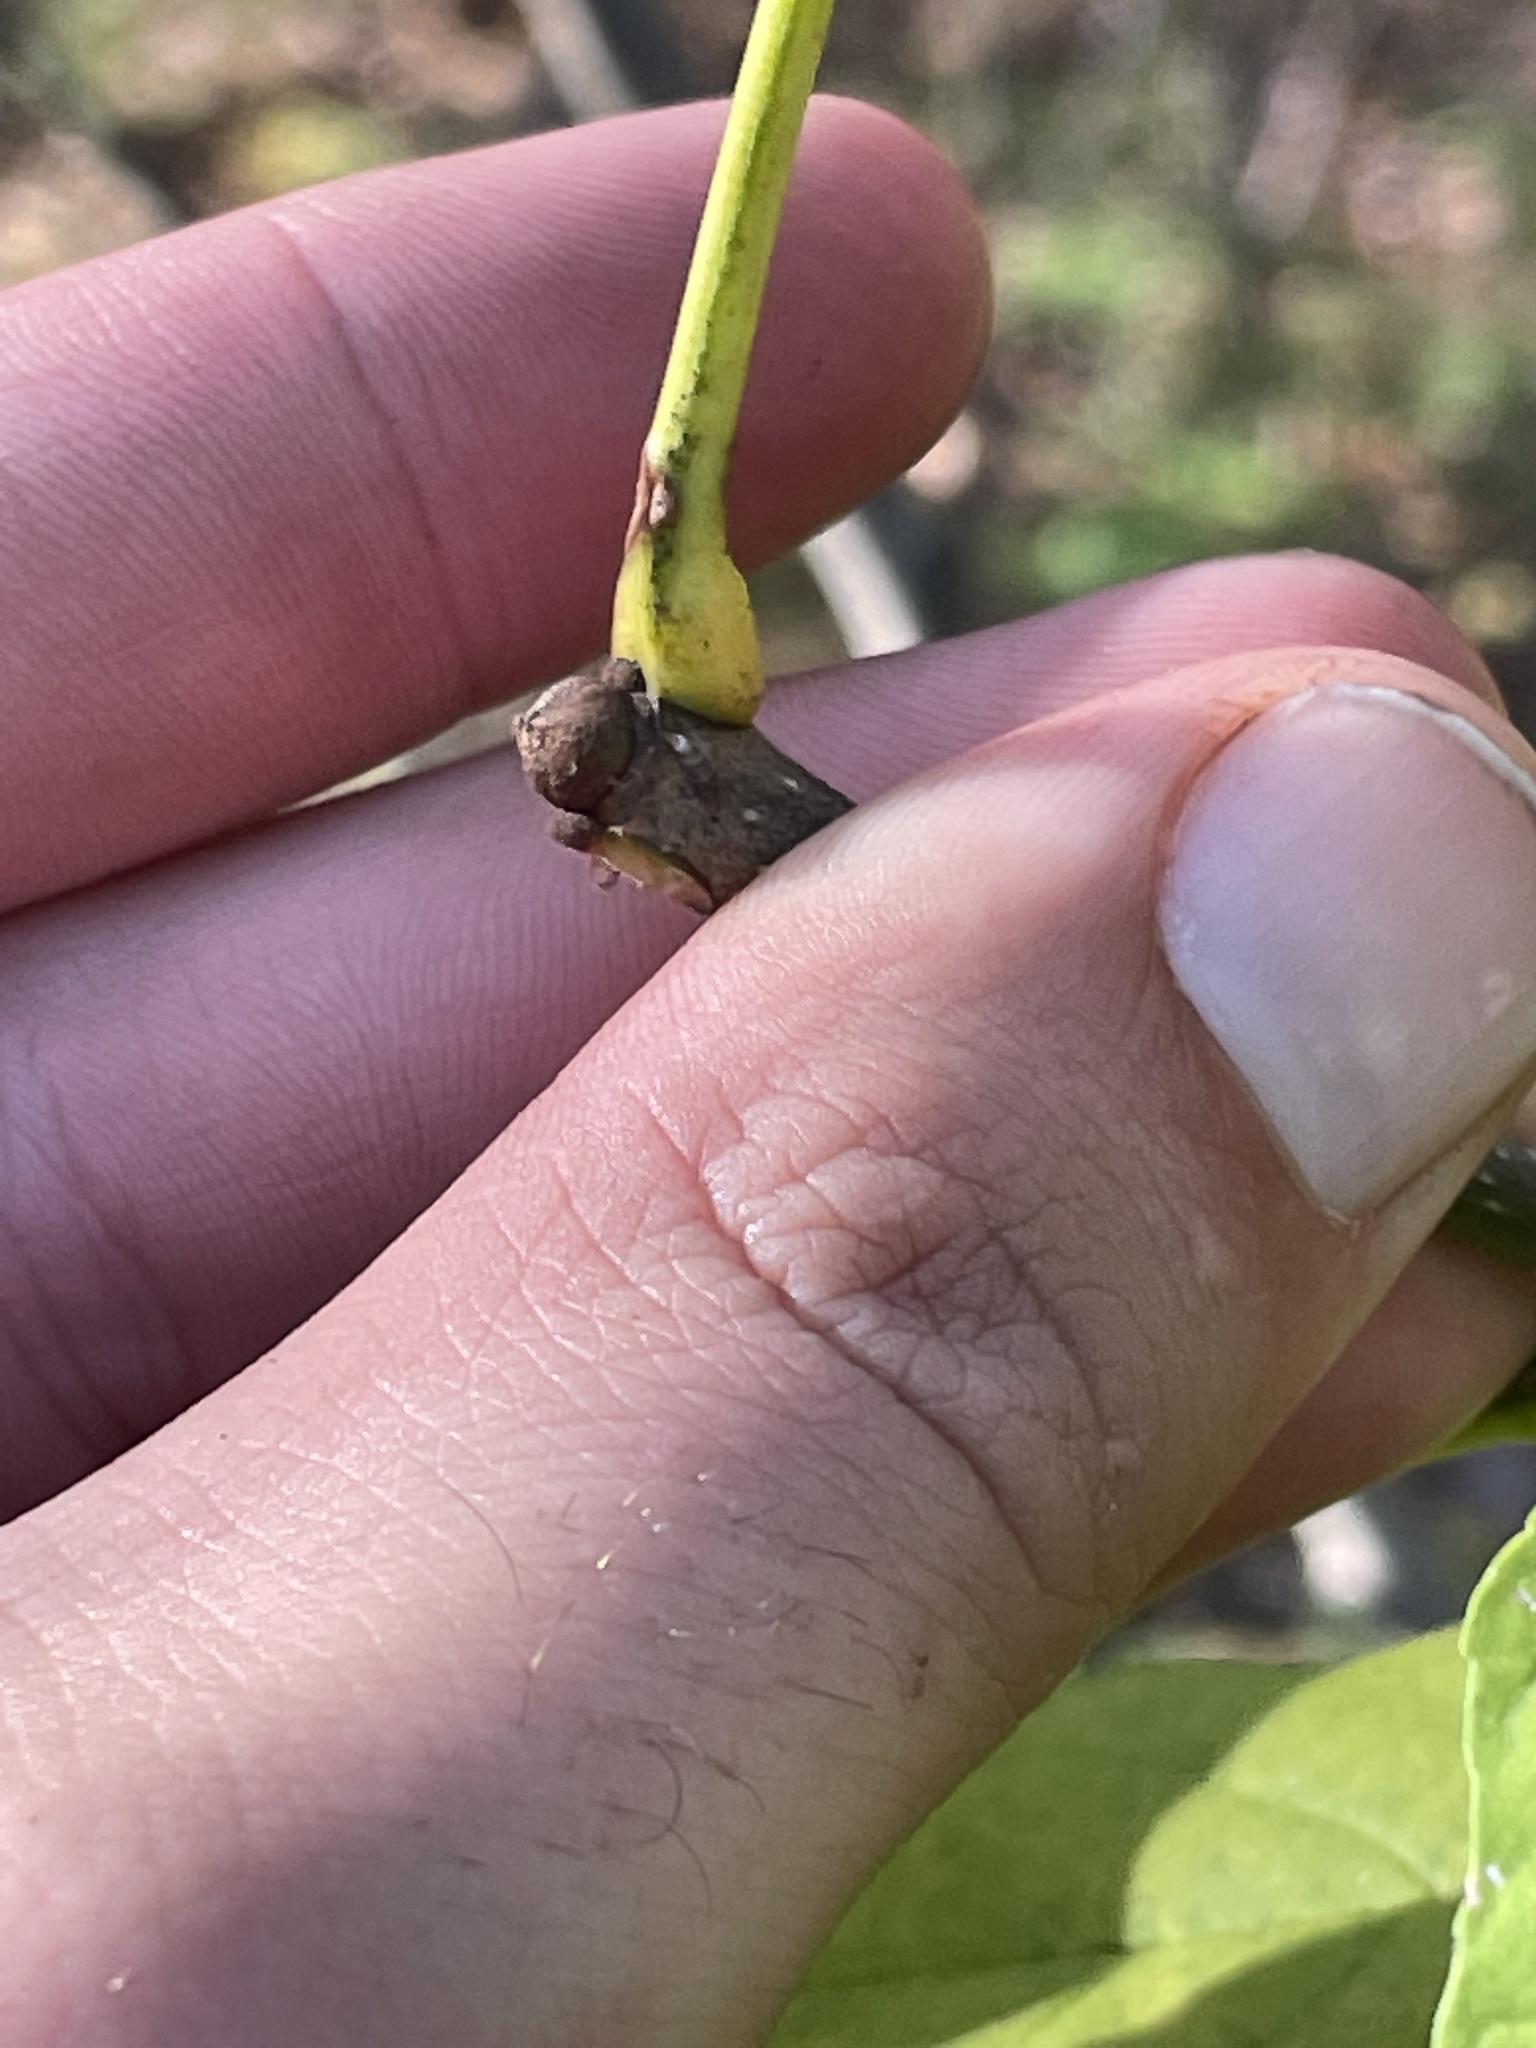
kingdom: Plantae
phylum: Tracheophyta
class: Magnoliopsida
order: Lamiales
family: Oleaceae
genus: Fraxinus
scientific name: Fraxinus americana
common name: White ash
